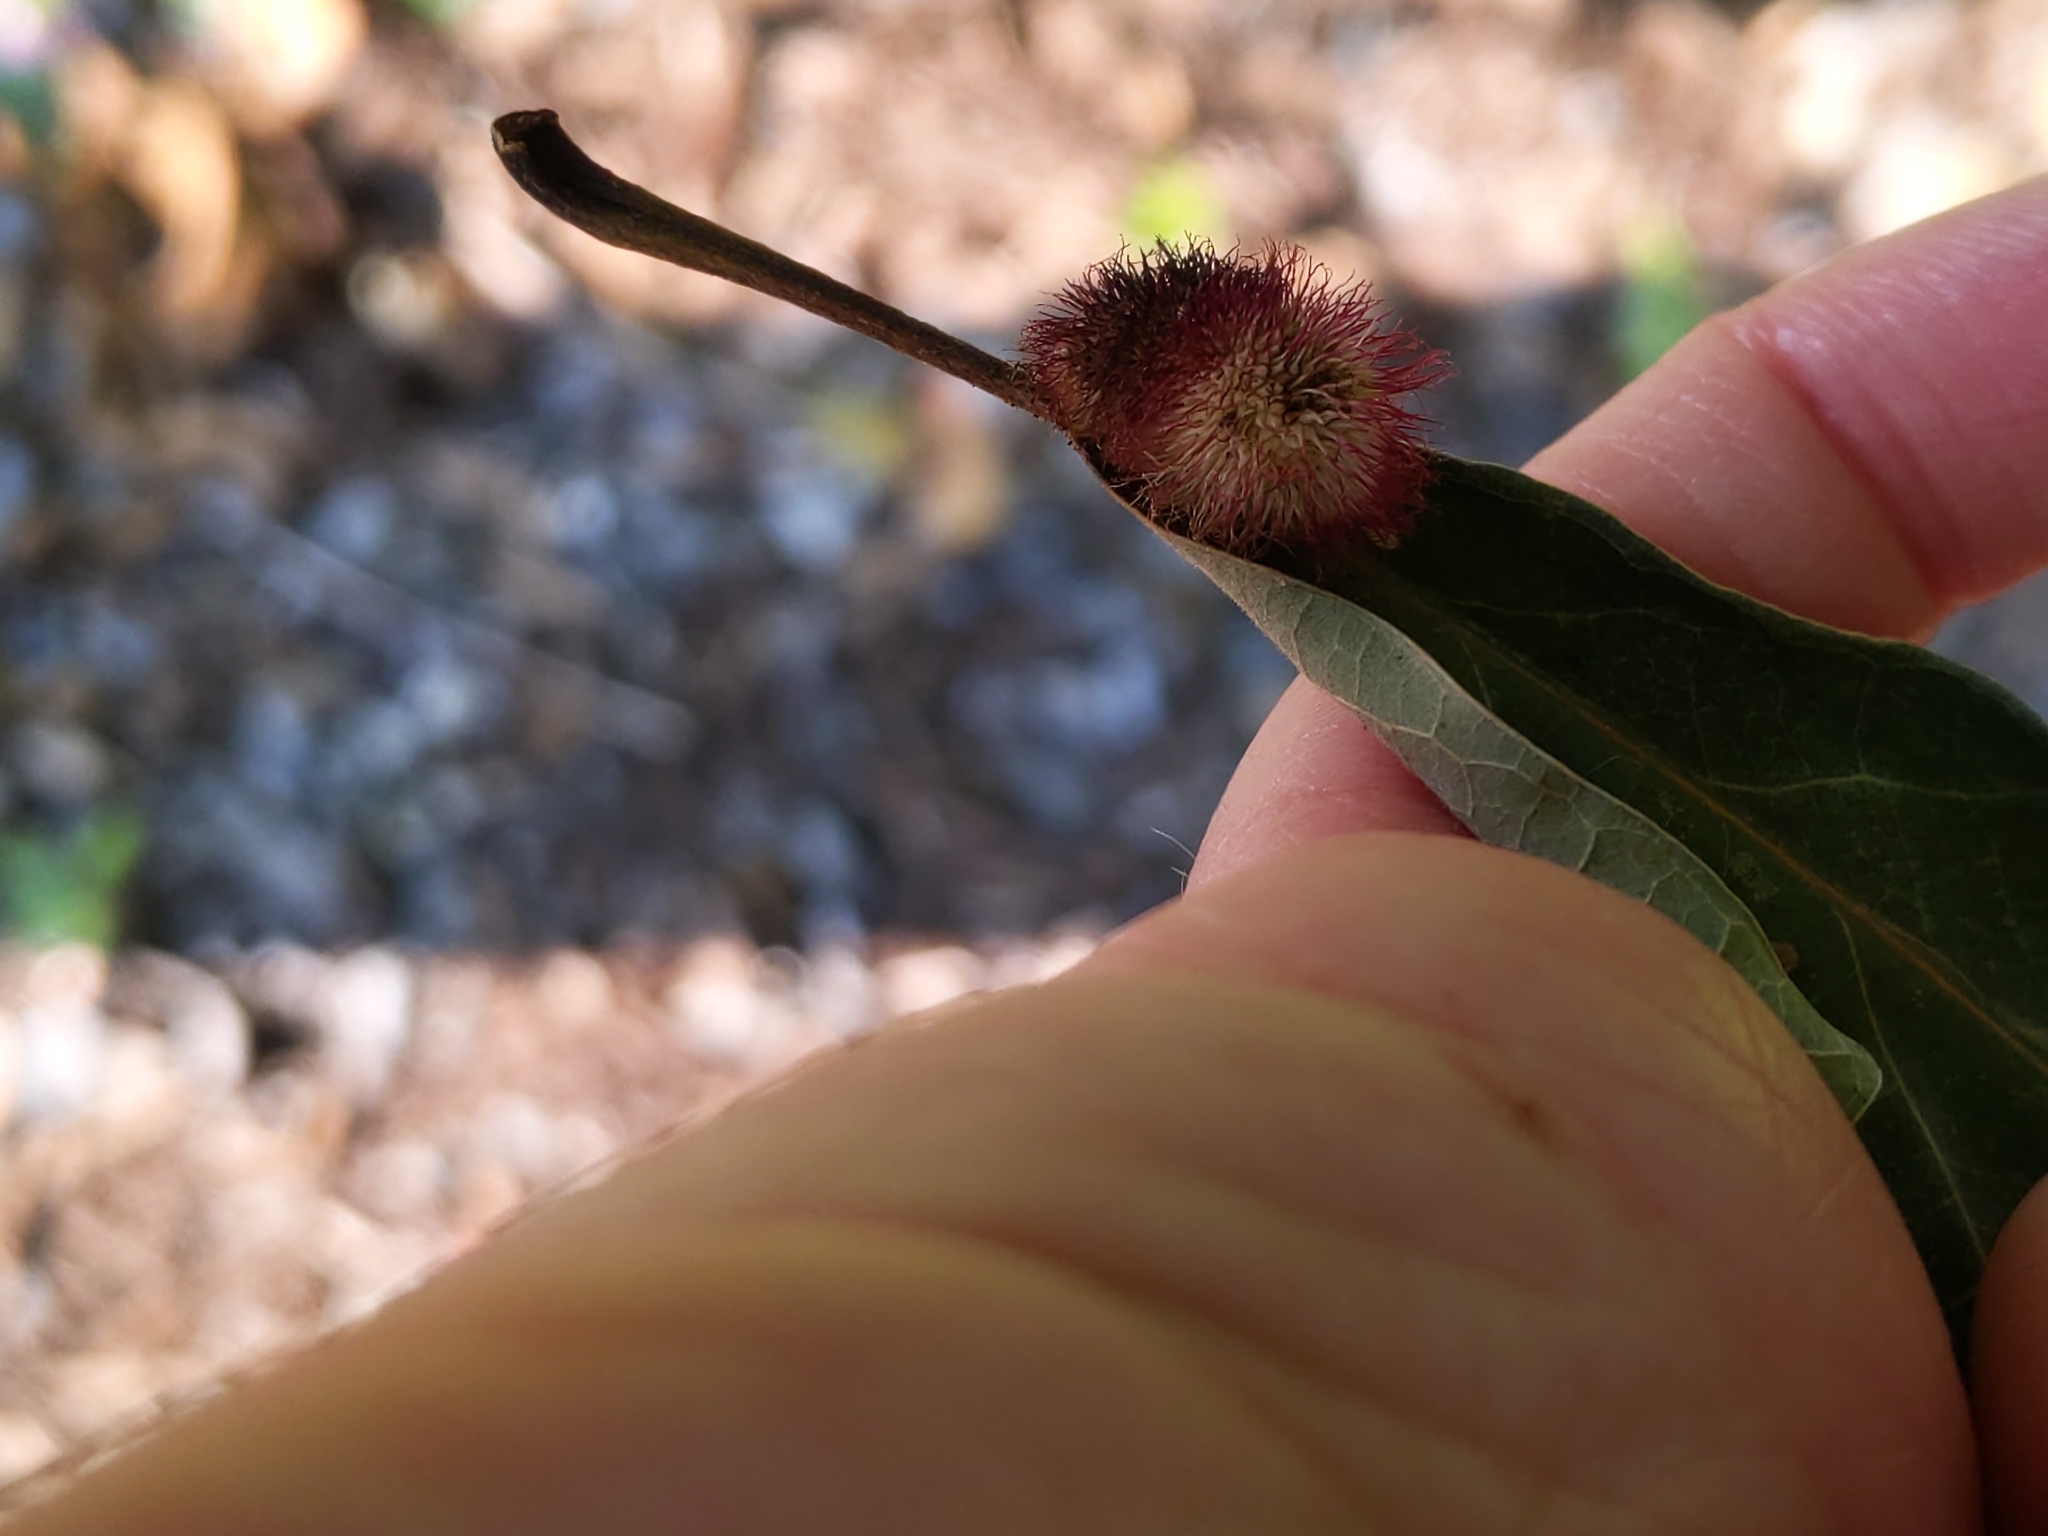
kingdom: Animalia
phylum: Arthropoda
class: Insecta
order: Hymenoptera
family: Cynipidae
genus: Acraspis
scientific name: Acraspis erinacei
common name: Hedgehog gall wasp
